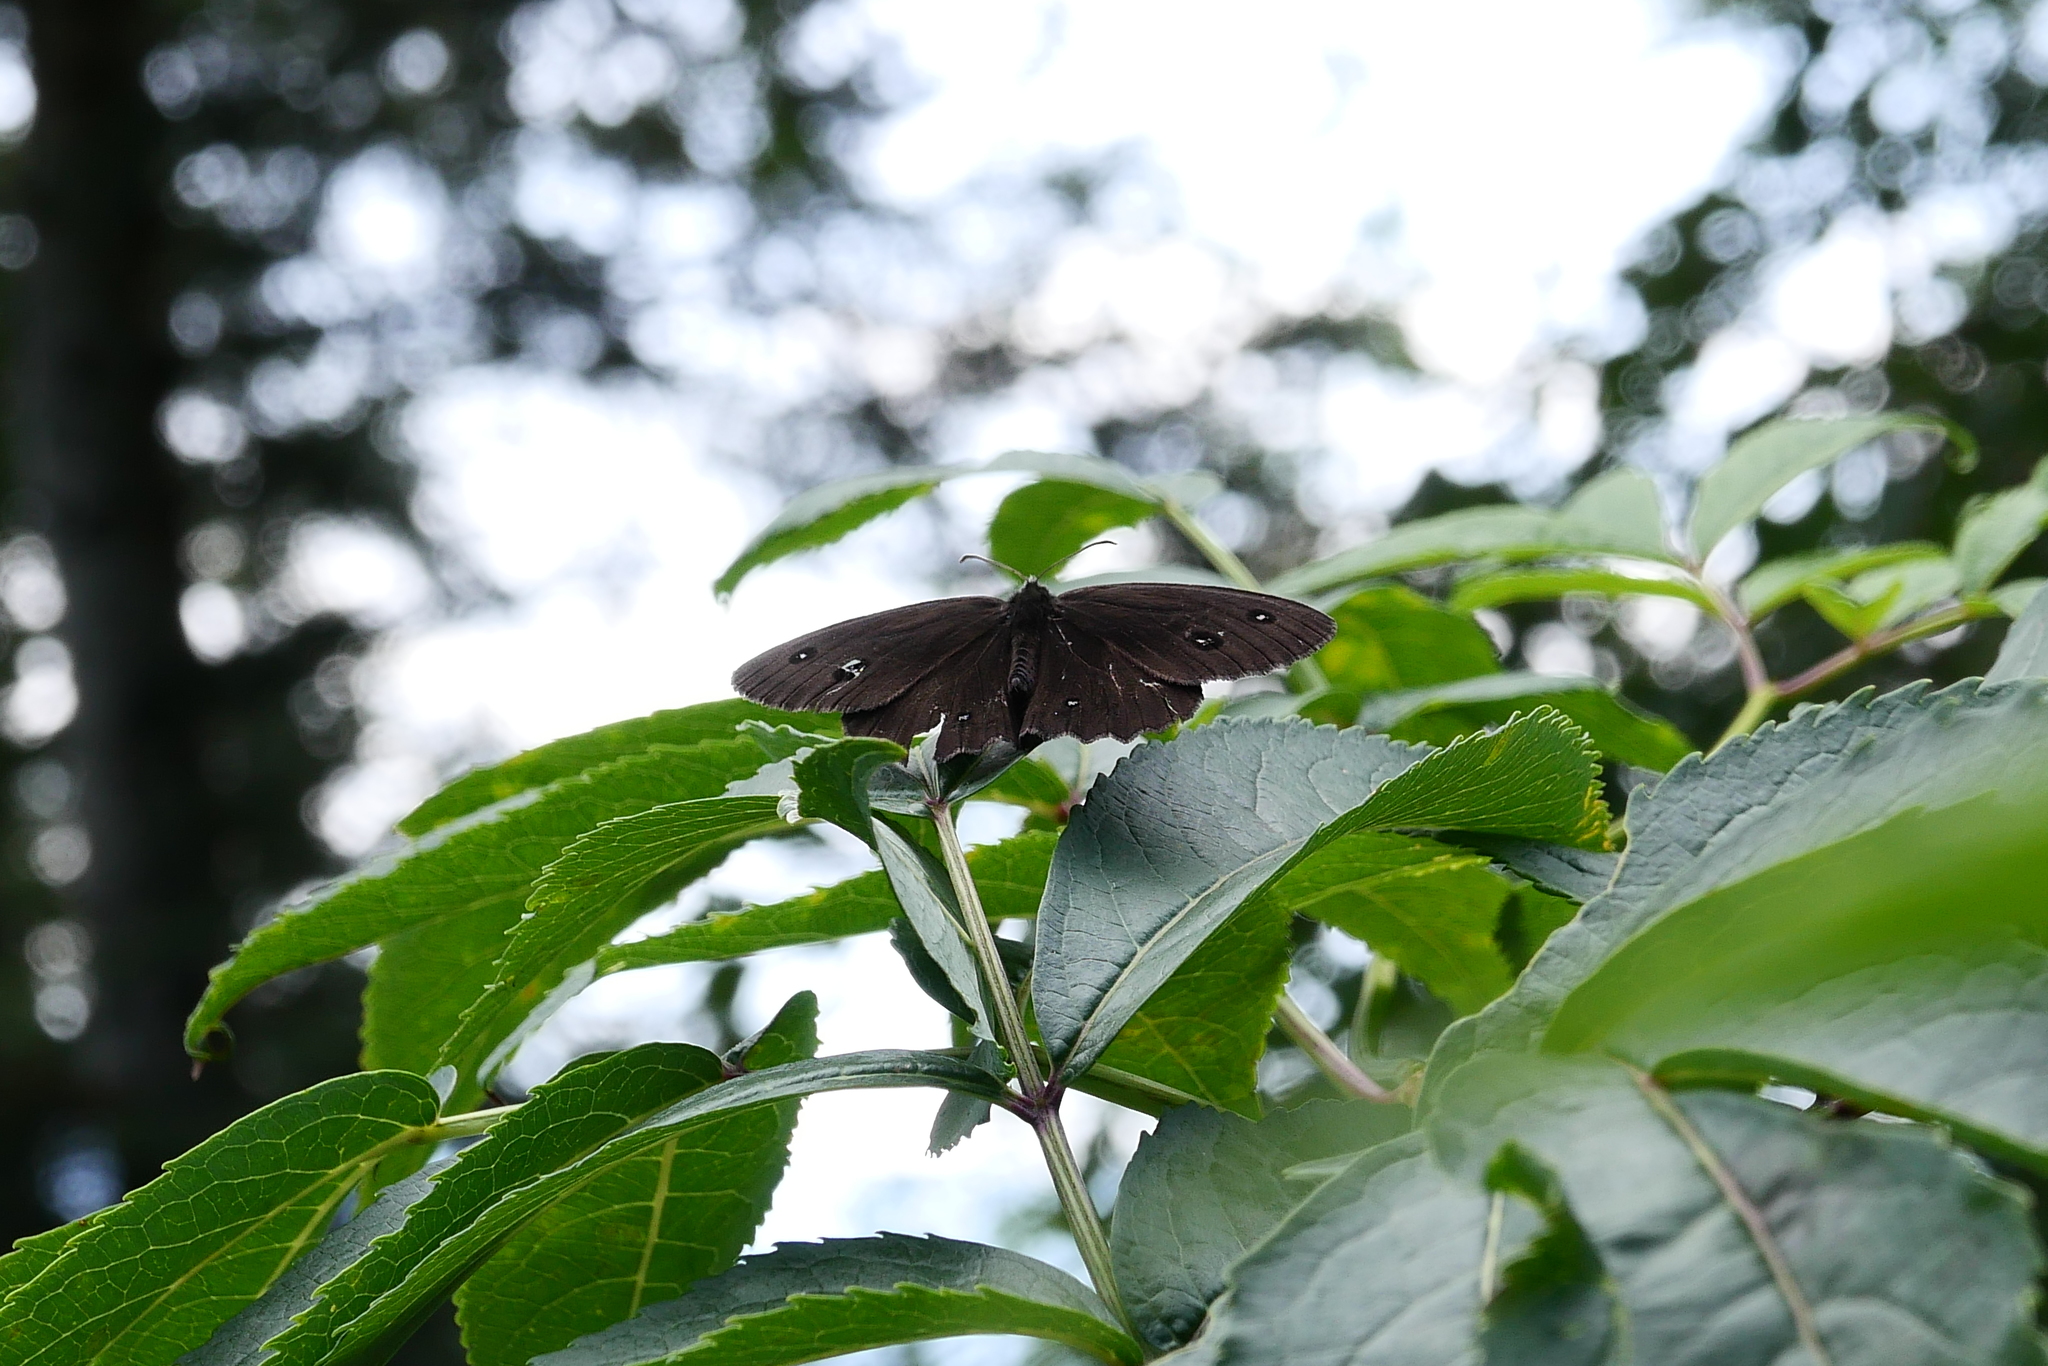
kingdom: Animalia
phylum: Arthropoda
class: Insecta
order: Lepidoptera
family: Nymphalidae
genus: Minois
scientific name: Minois dryas
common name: Dryad
